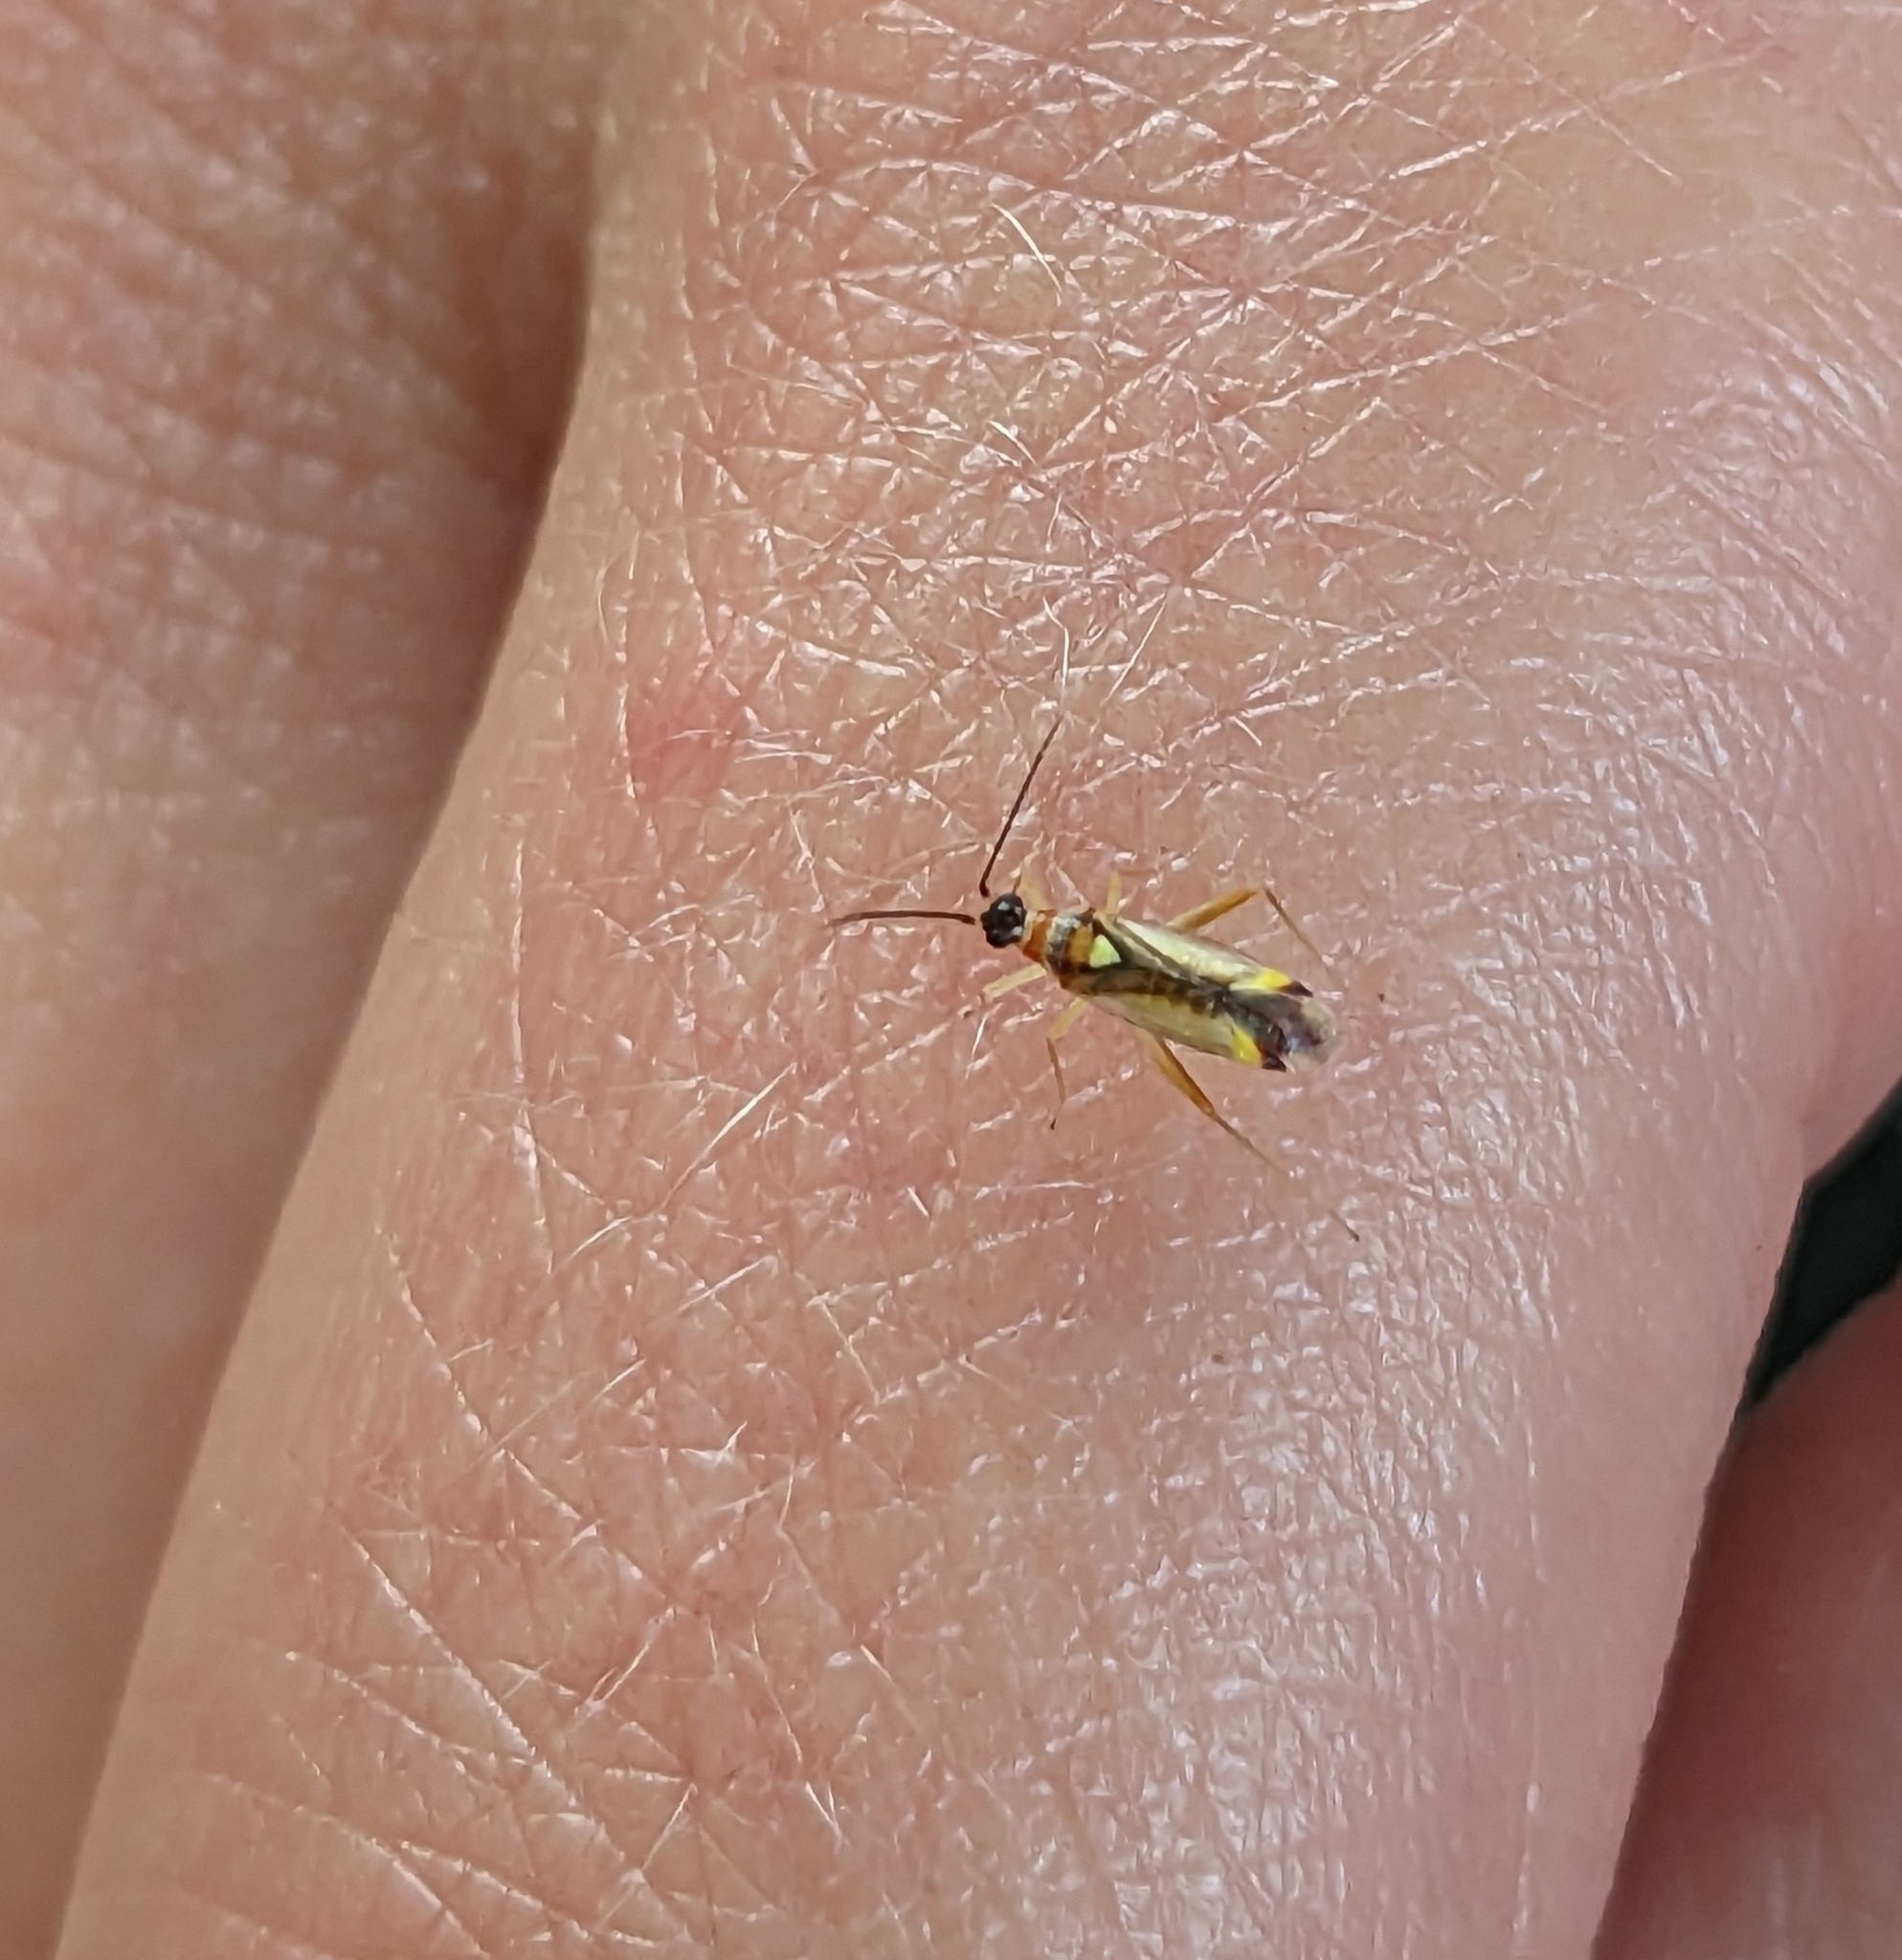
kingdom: Animalia
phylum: Arthropoda
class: Insecta
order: Hemiptera
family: Miridae
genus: Campyloneura
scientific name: Campyloneura virgula
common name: Predatory bug
